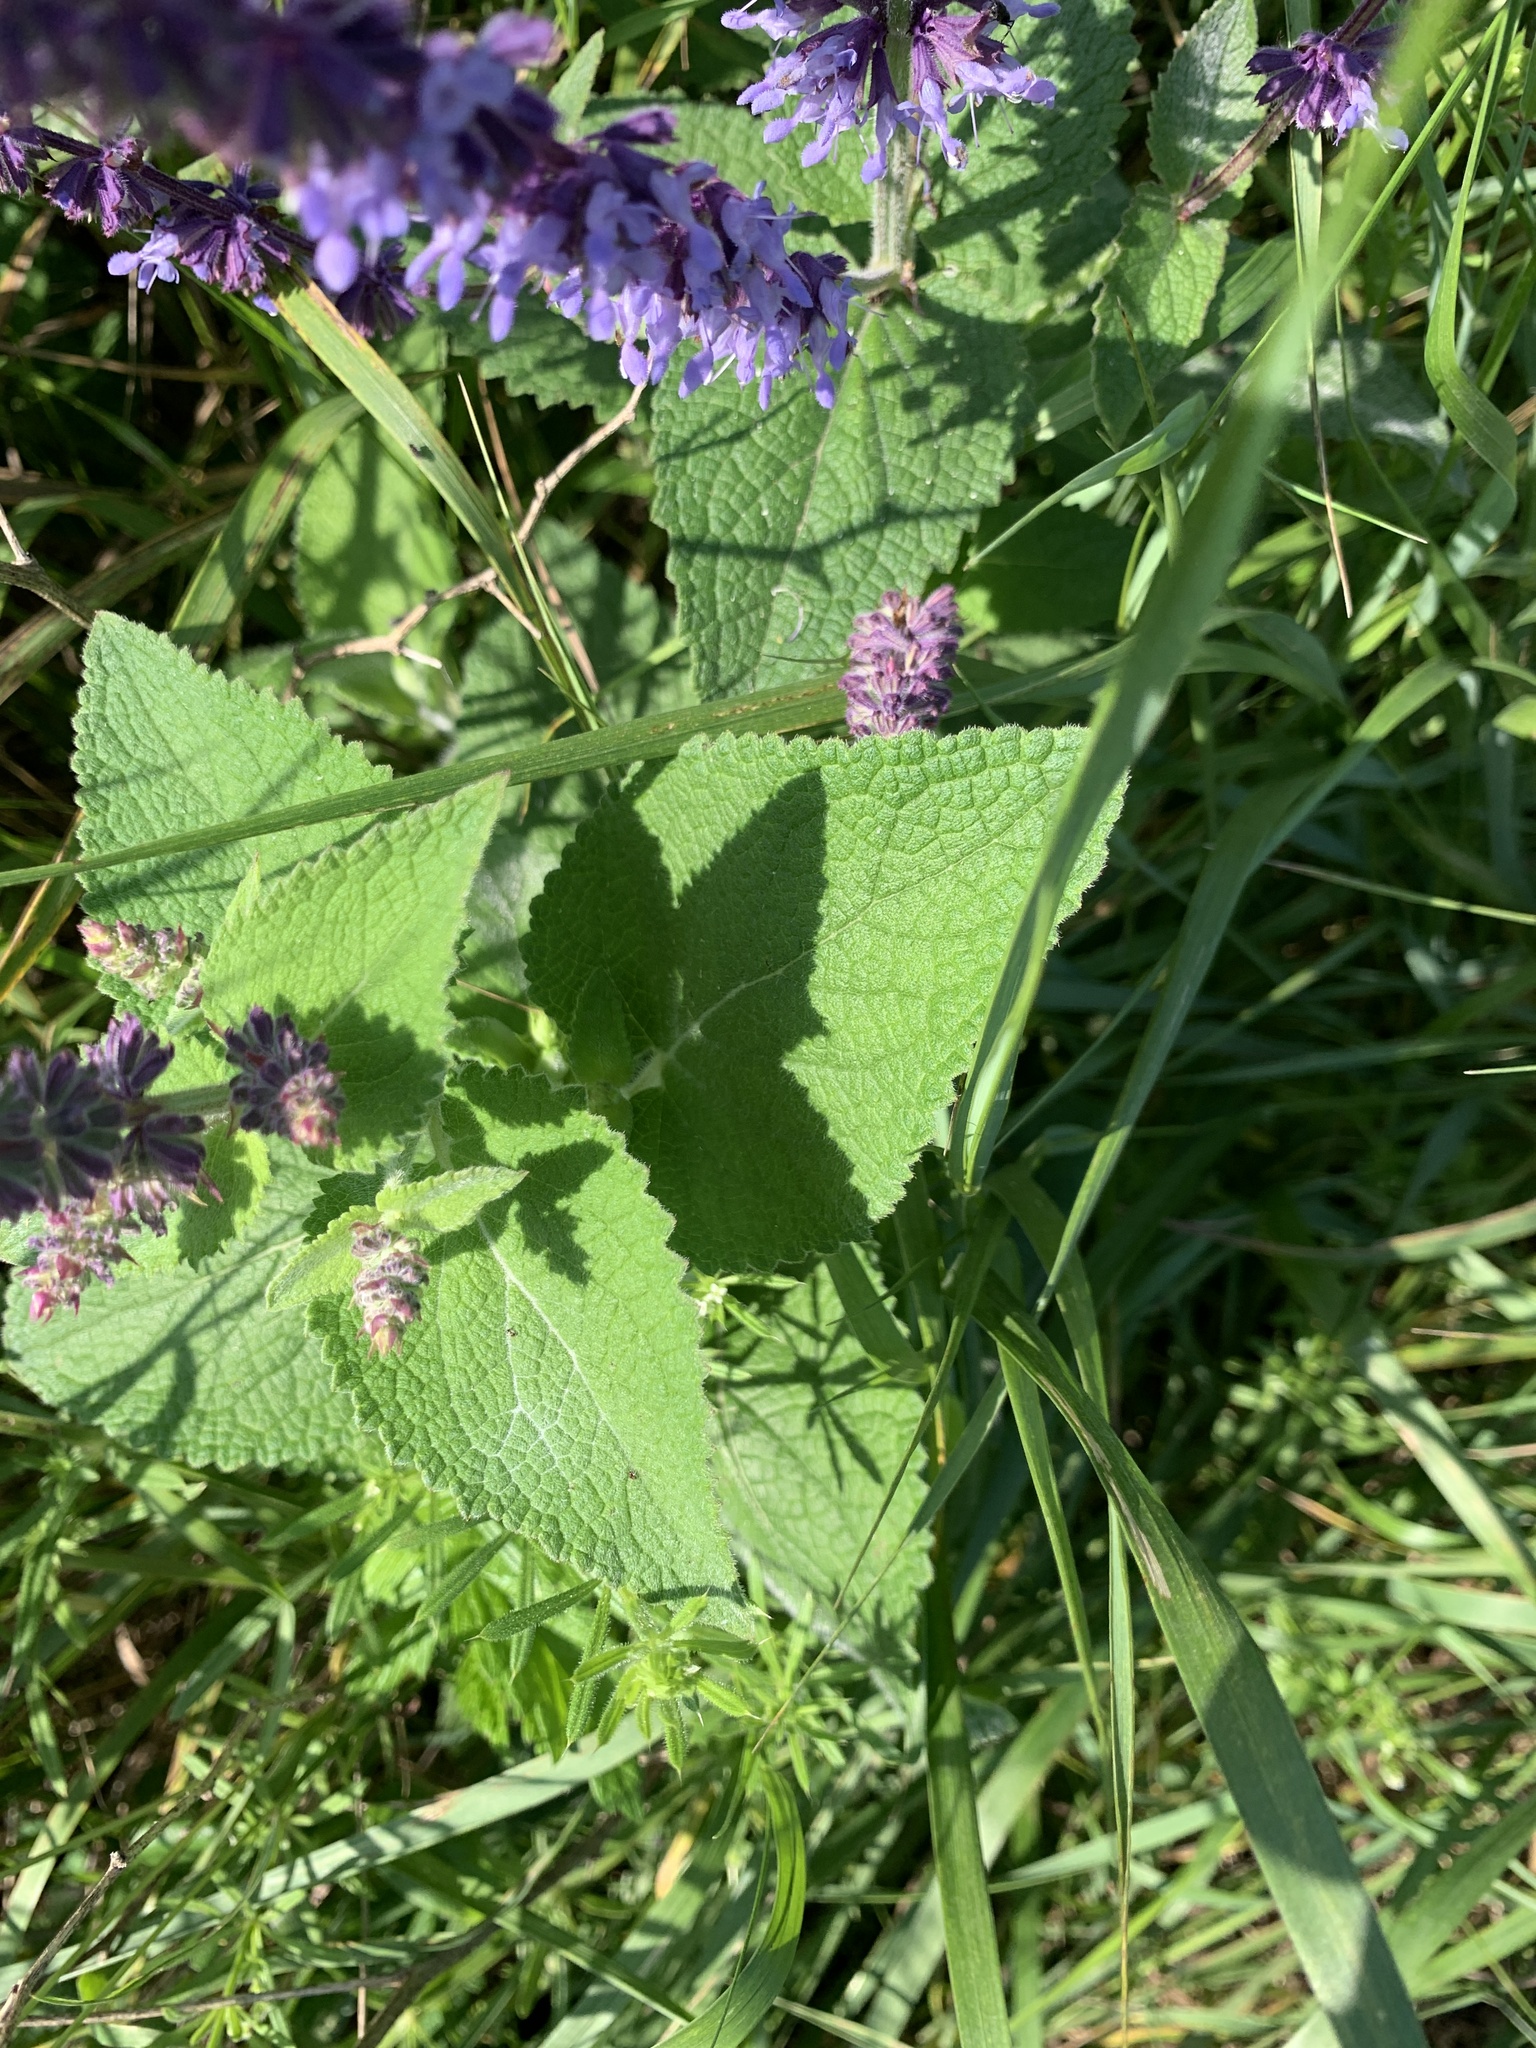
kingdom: Plantae
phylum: Tracheophyta
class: Magnoliopsida
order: Lamiales
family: Lamiaceae
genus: Salvia
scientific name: Salvia verticillata
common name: Whorled clary
